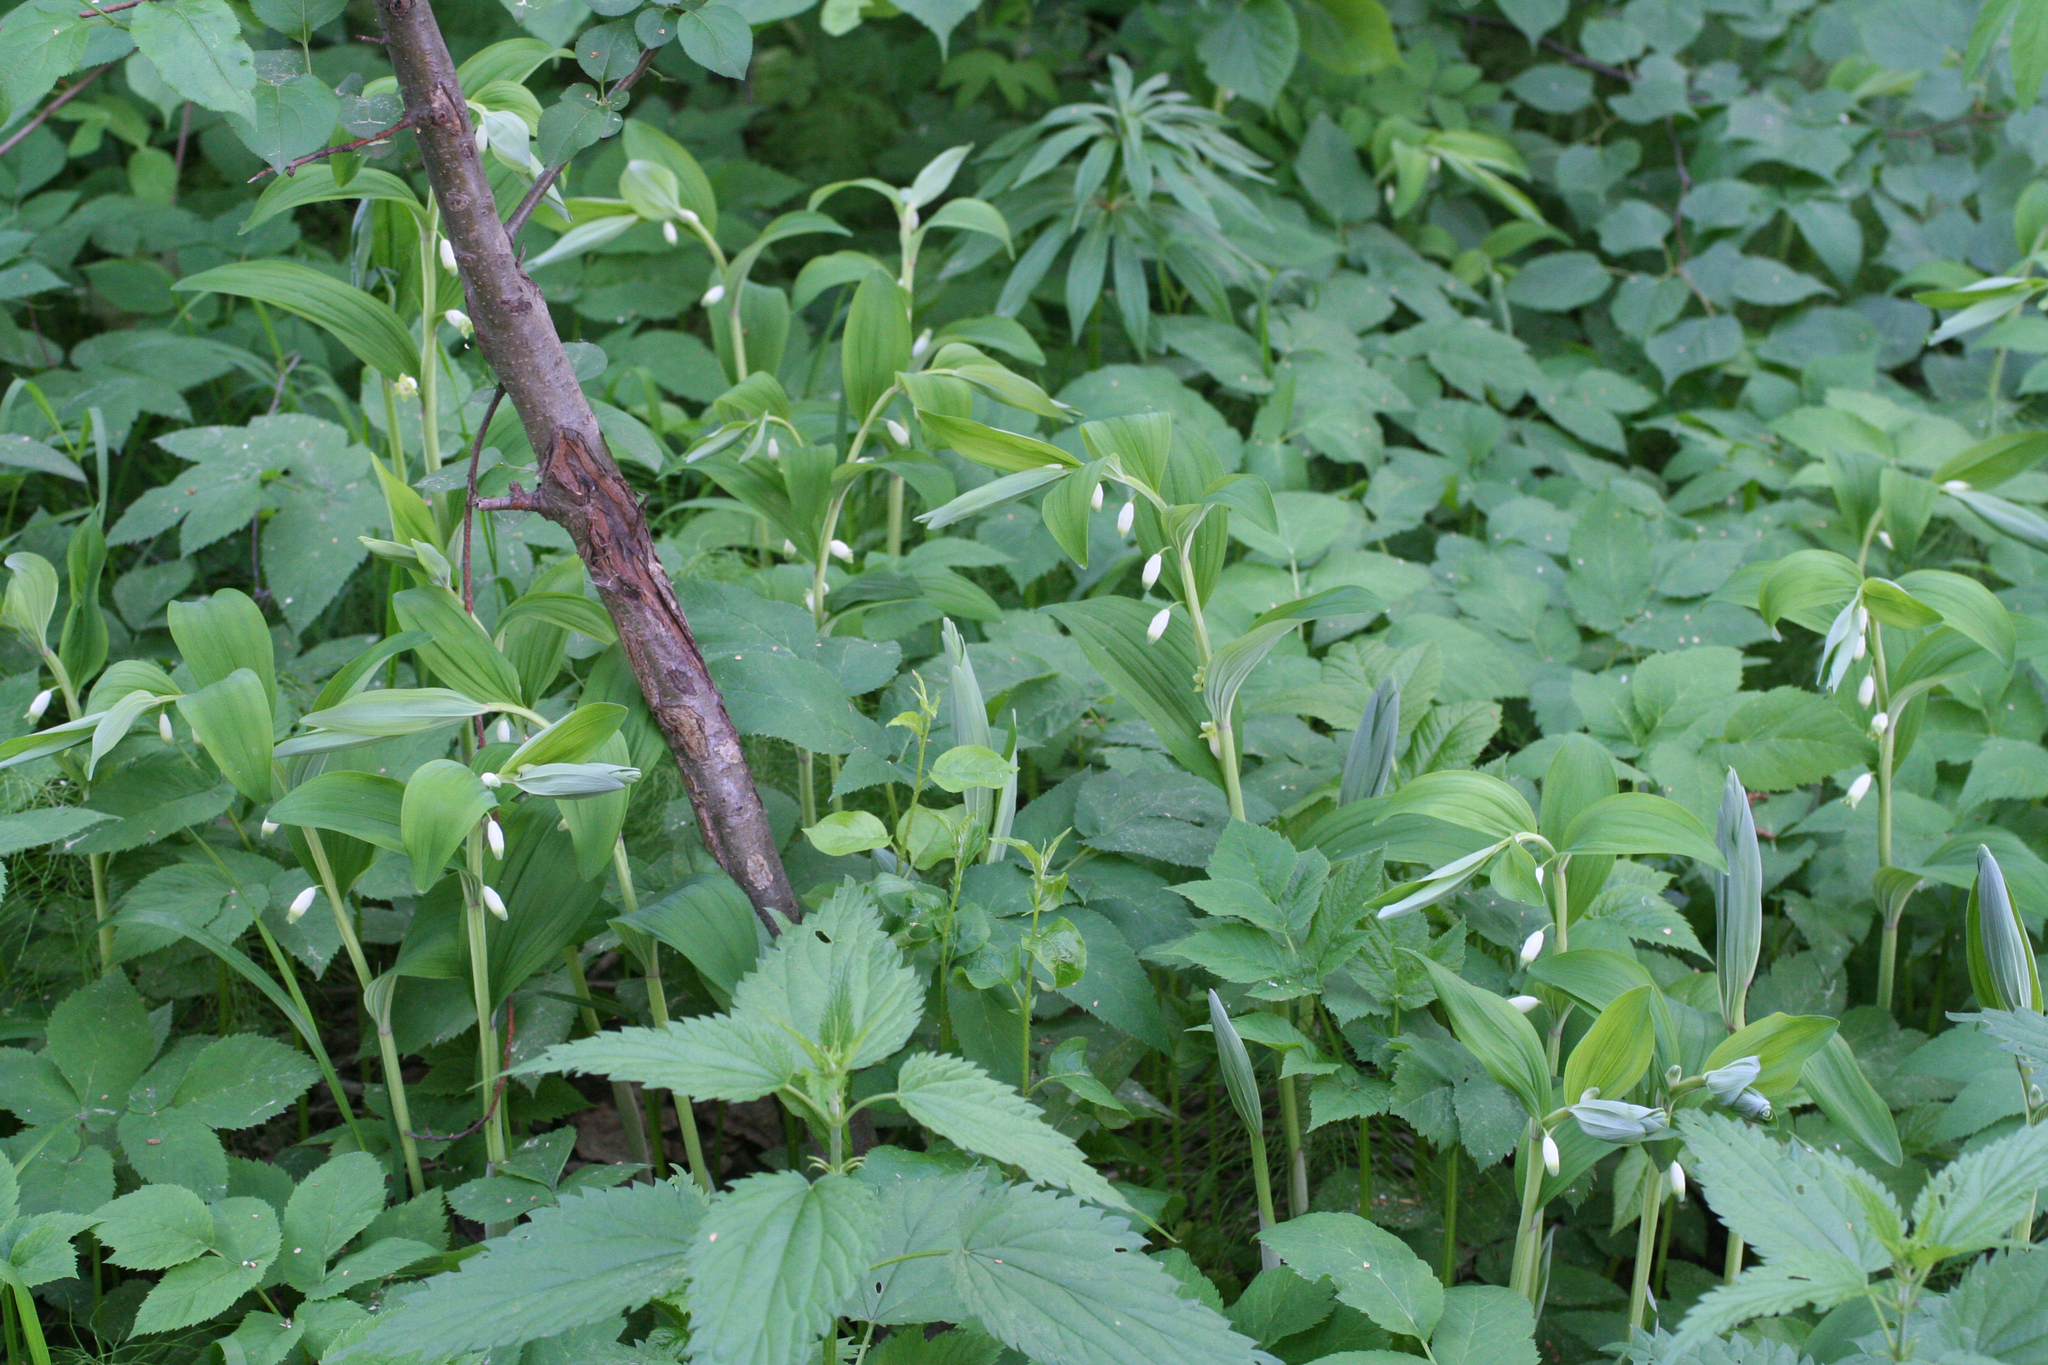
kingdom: Plantae
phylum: Tracheophyta
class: Liliopsida
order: Asparagales
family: Asparagaceae
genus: Polygonatum
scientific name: Polygonatum odoratum
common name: Angular solomon's-seal
